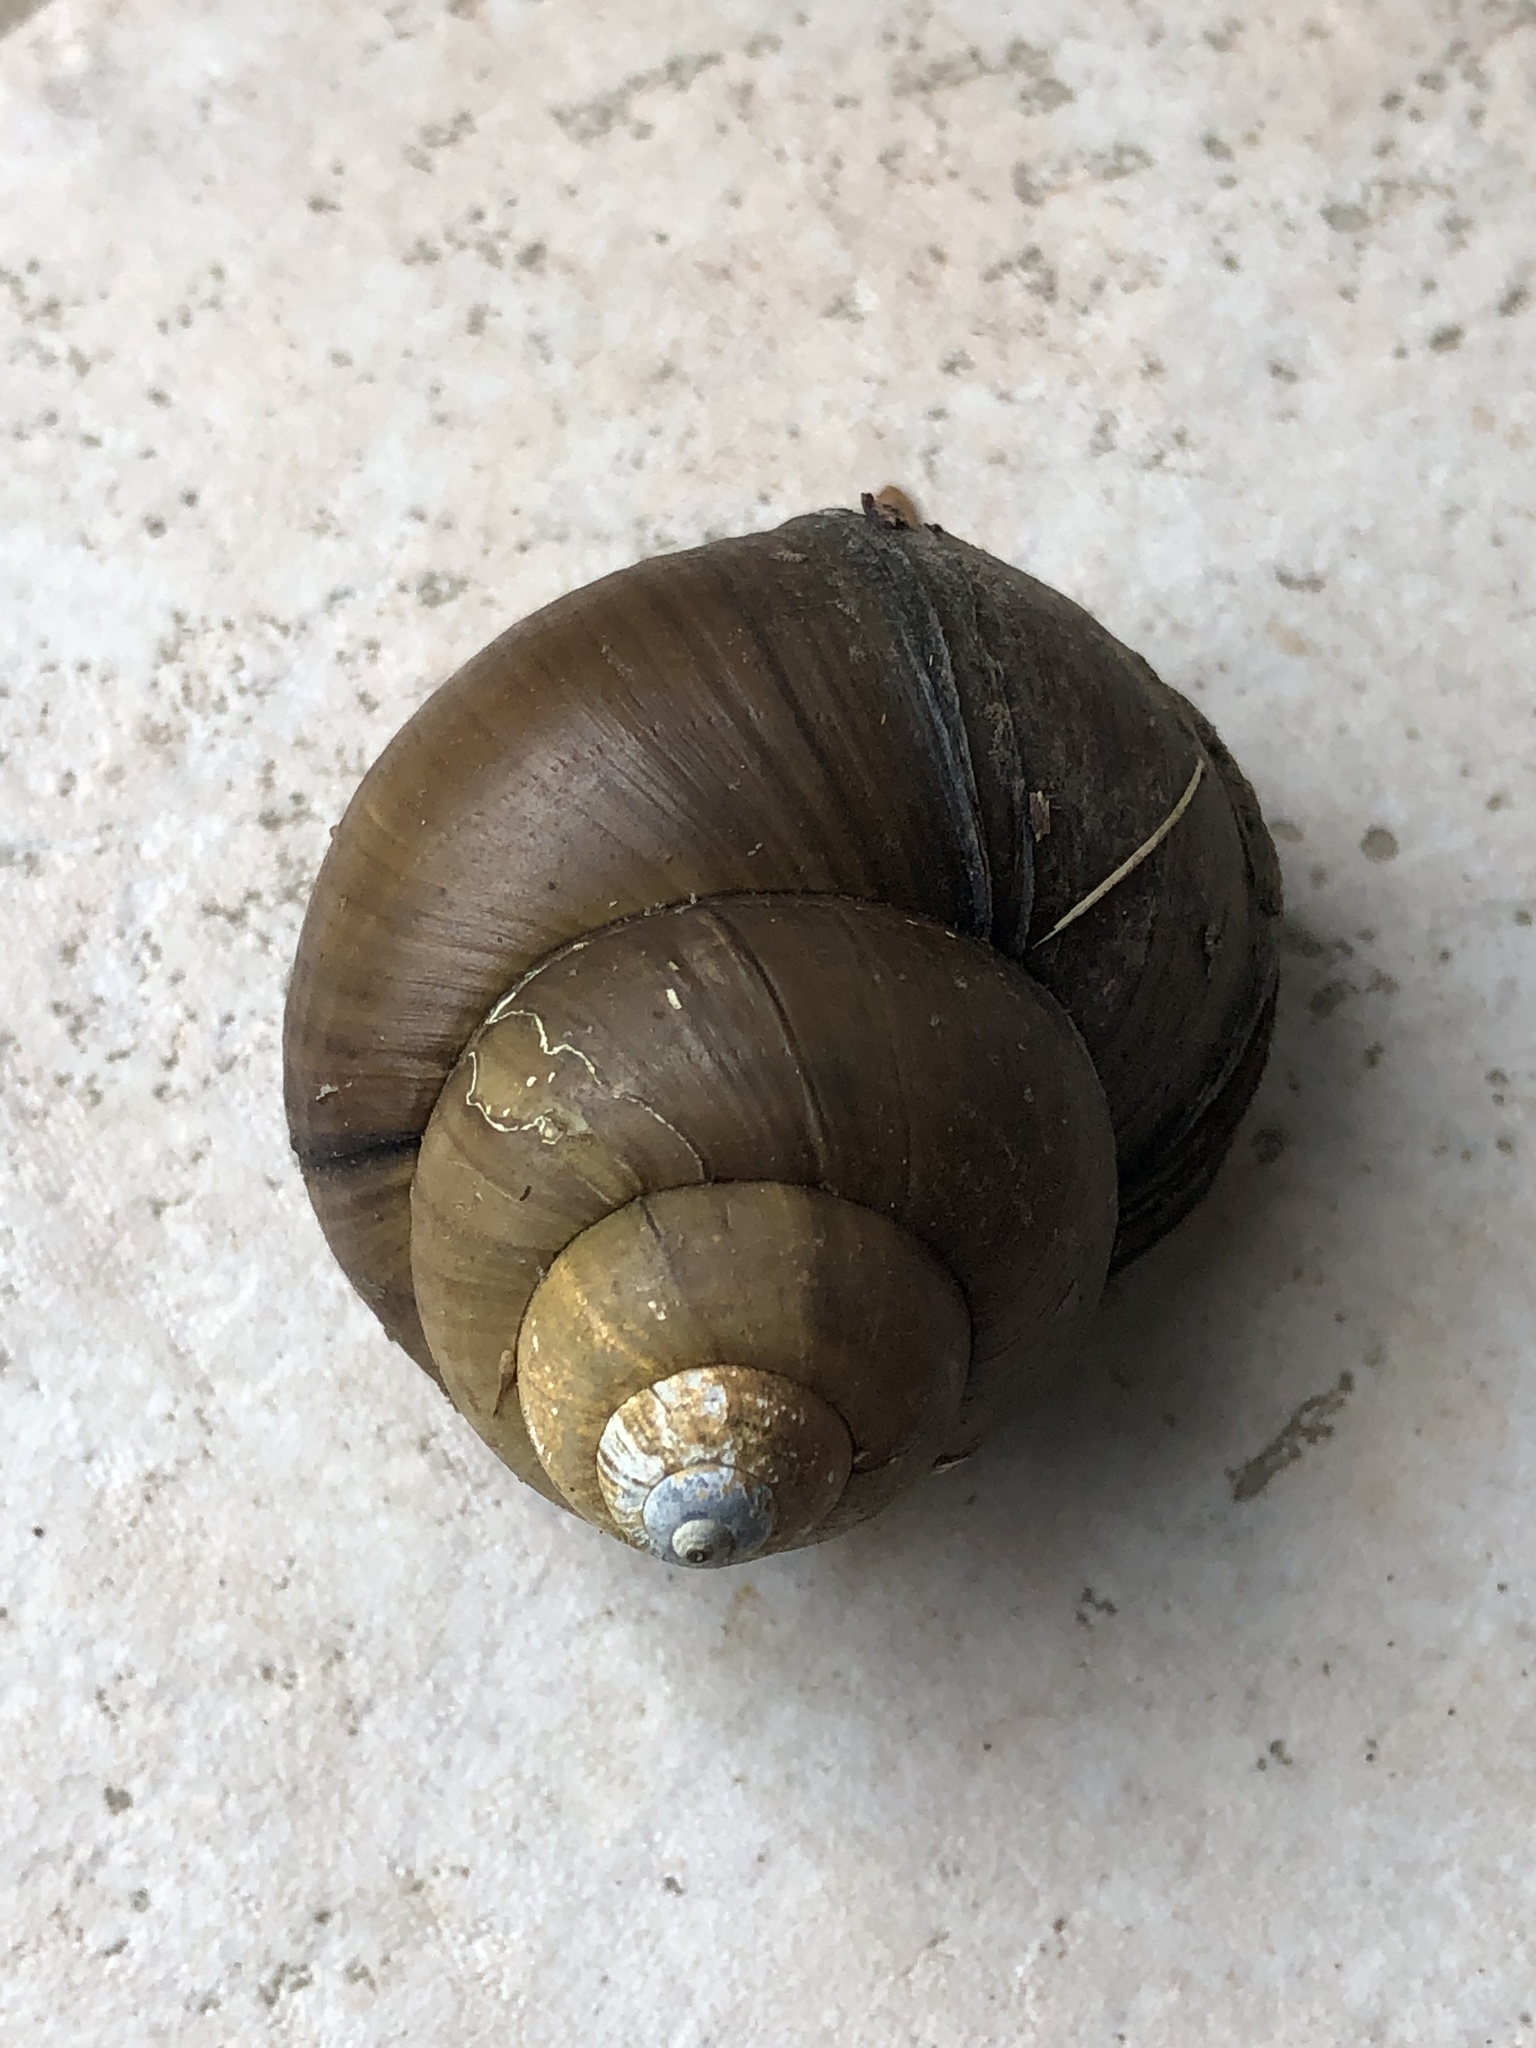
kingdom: Animalia
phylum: Mollusca
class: Gastropoda
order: Architaenioglossa
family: Viviparidae
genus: Cipangopaludina
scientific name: Cipangopaludina chinensis
